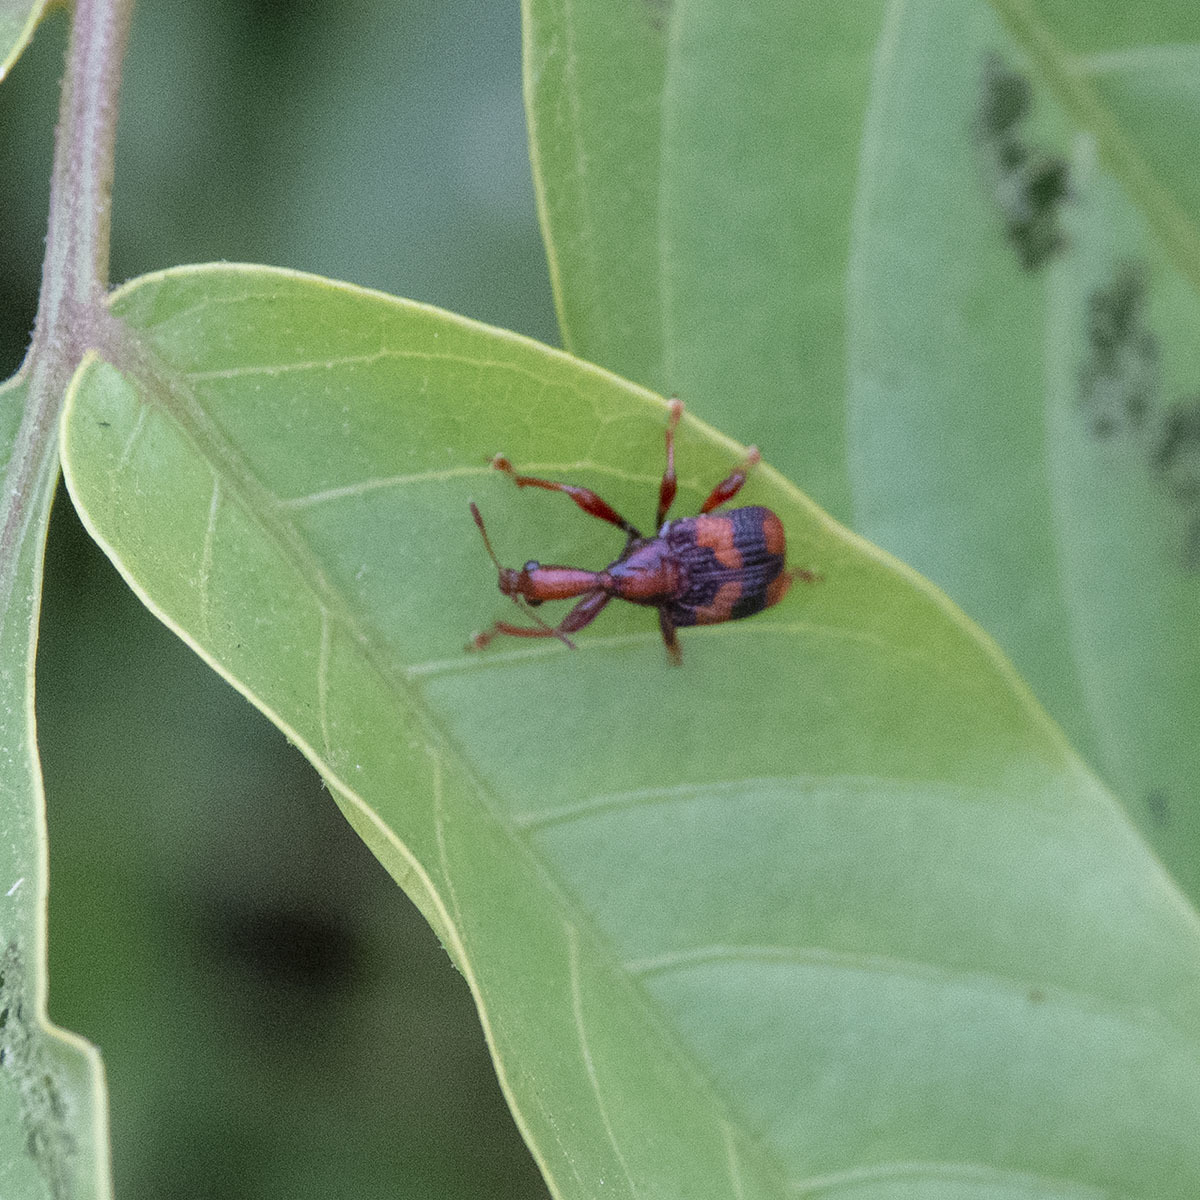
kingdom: Animalia
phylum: Arthropoda
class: Insecta
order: Coleoptera
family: Attelabidae
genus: Strigapoderus
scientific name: Strigapoderus tranquebaricus
